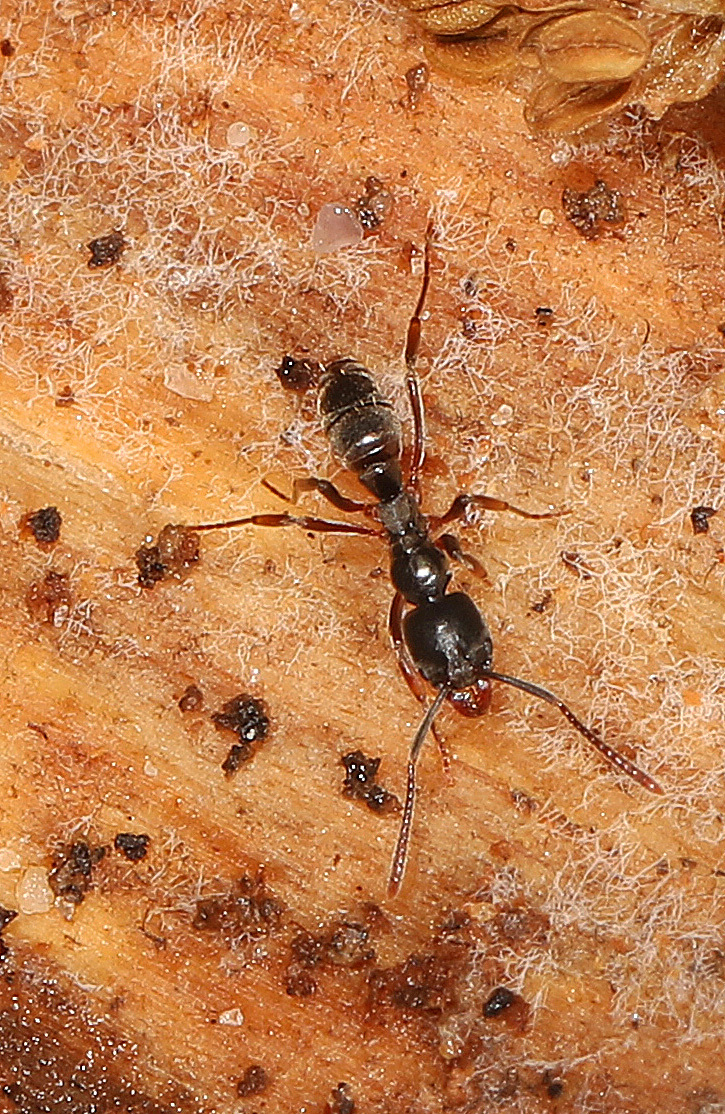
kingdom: Animalia
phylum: Arthropoda
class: Insecta
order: Hymenoptera
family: Formicidae
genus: Pachycondyla
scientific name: Pachycondyla chinensis
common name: Asian needle ant
